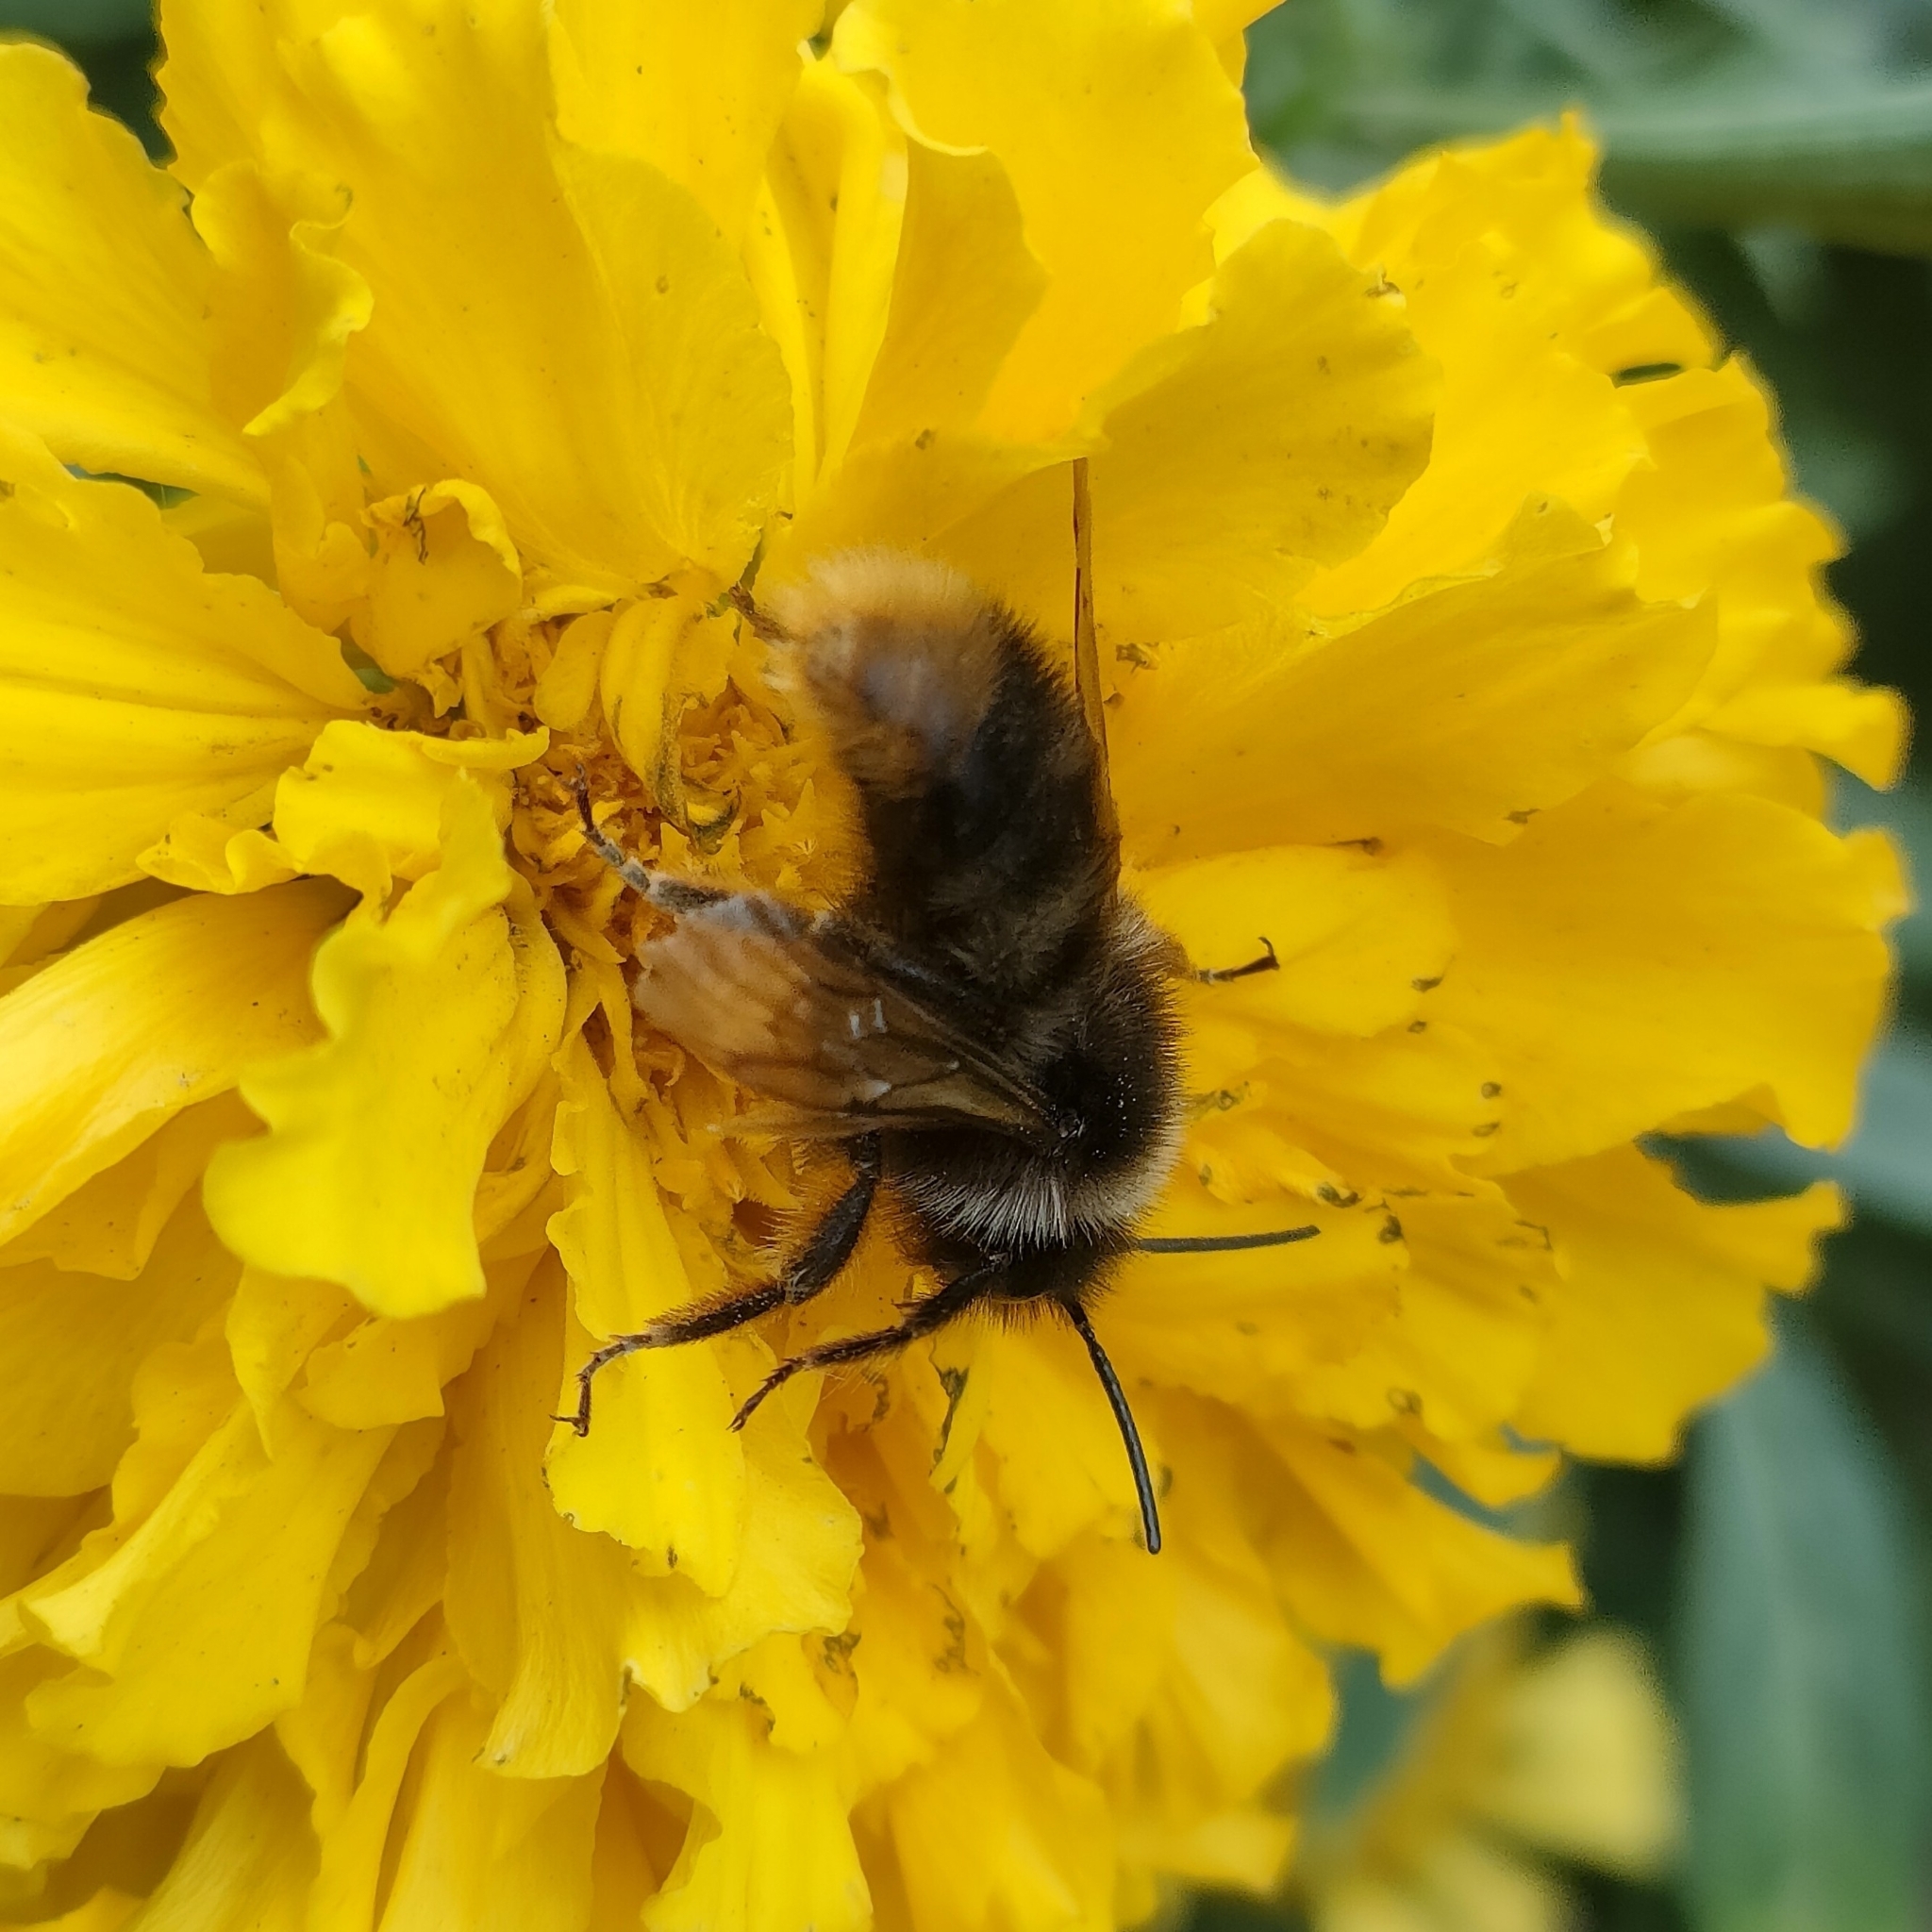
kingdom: Animalia
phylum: Arthropoda
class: Insecta
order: Hymenoptera
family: Apidae
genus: Bombus
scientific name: Bombus rupestris
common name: Hill cuckoo-bee
